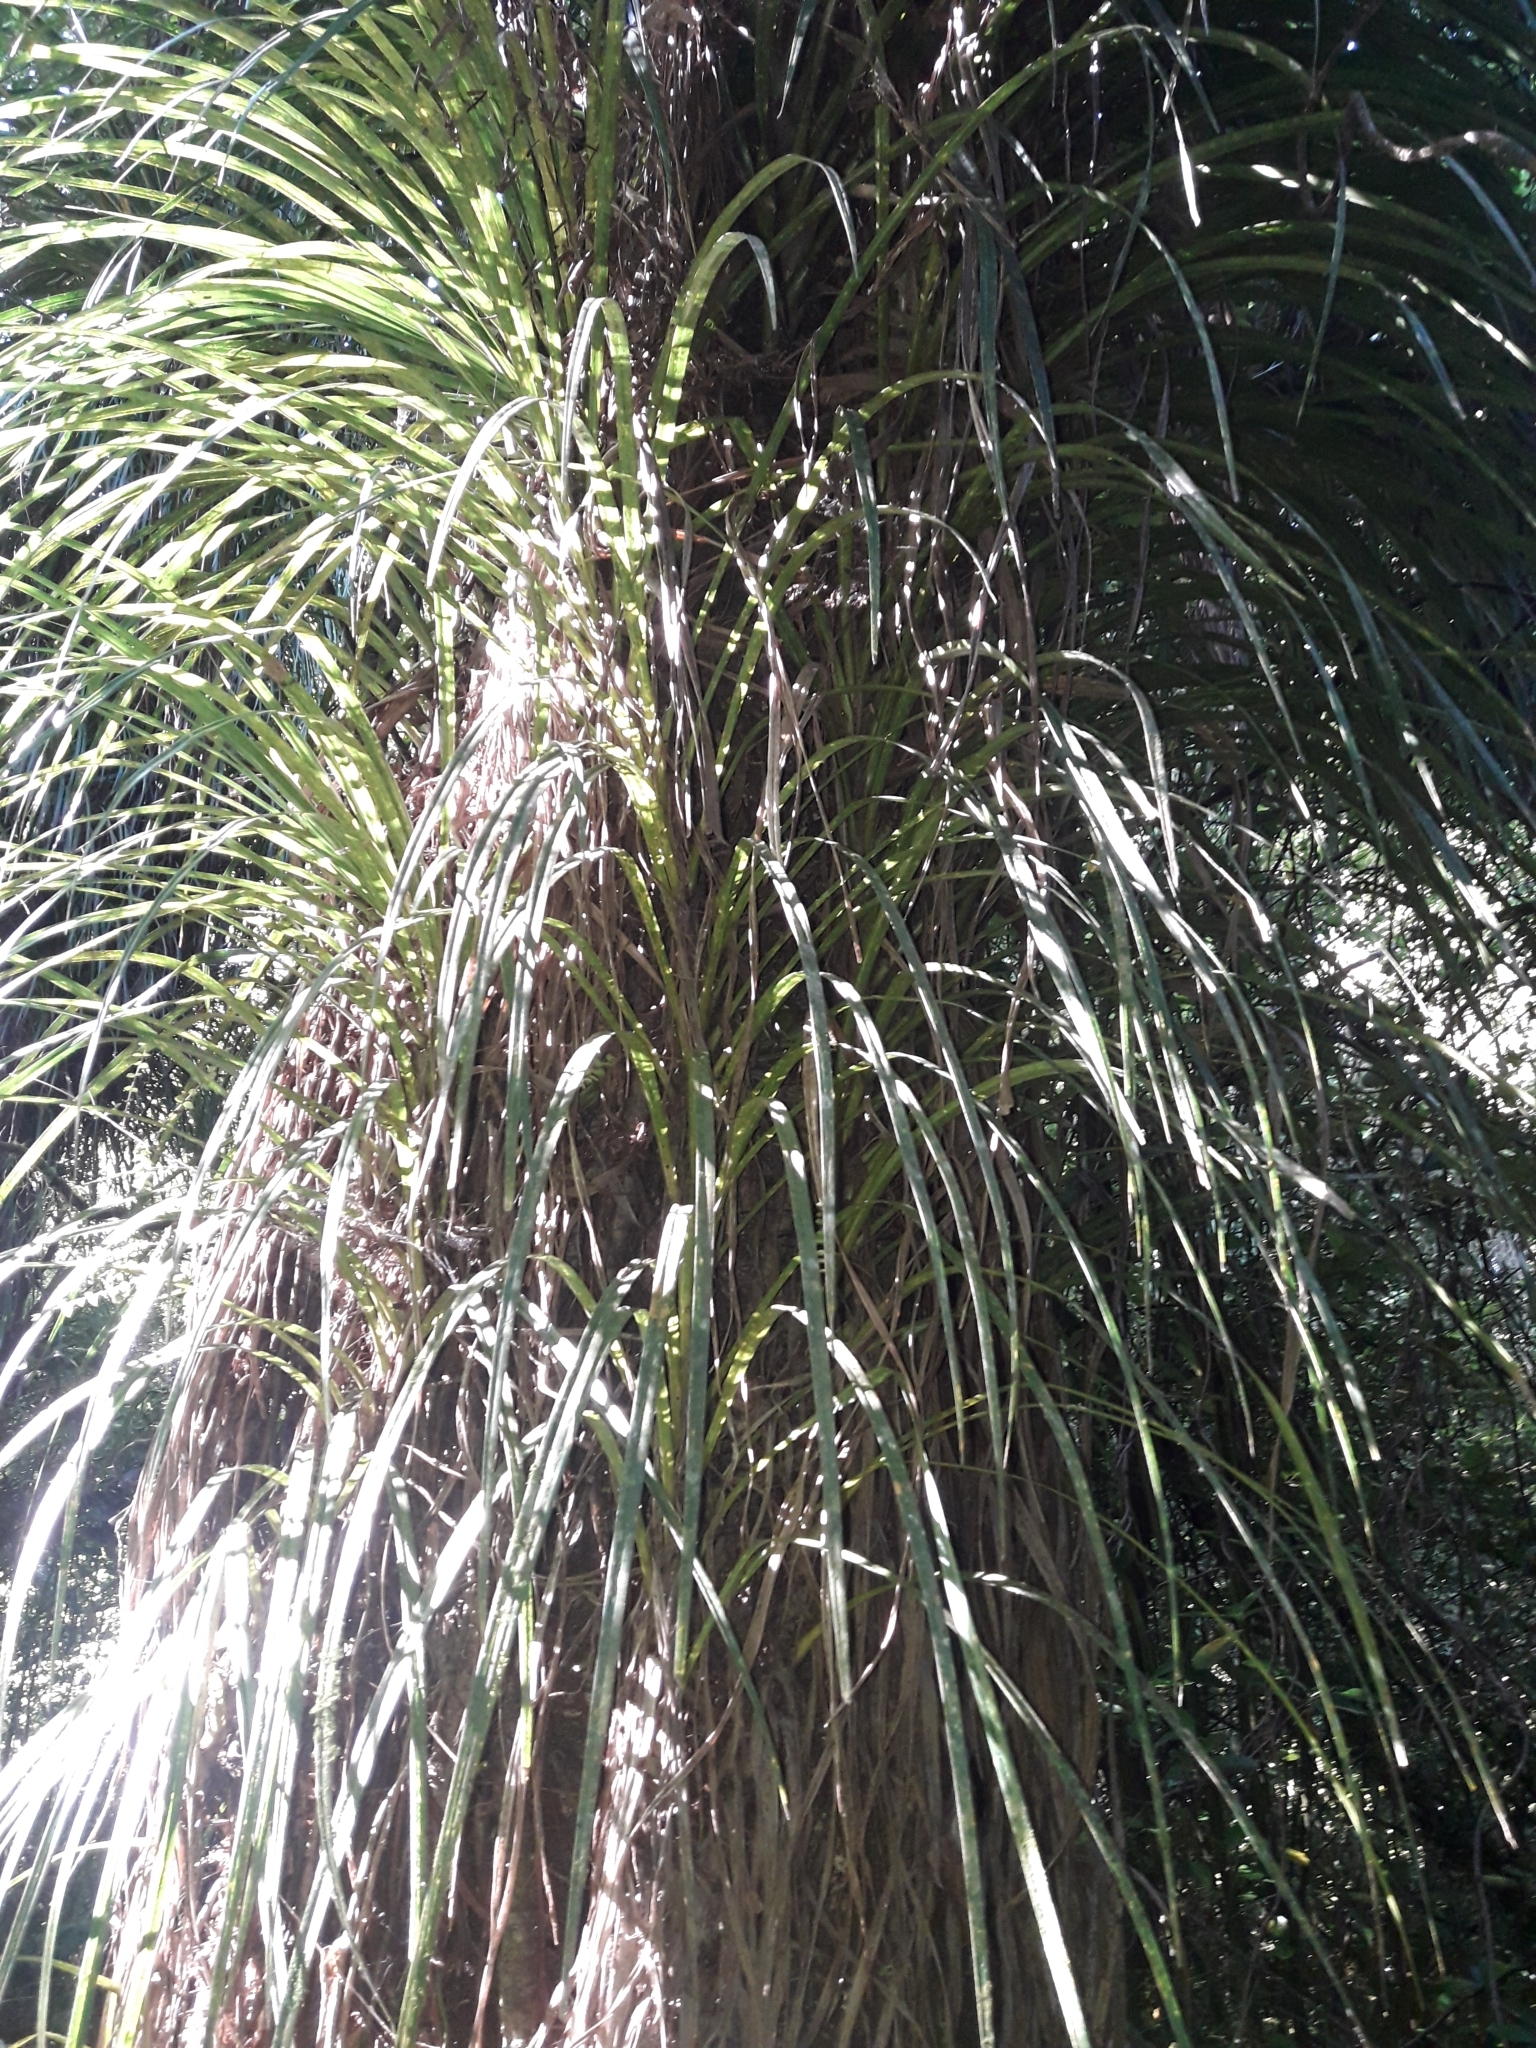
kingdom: Plantae
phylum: Tracheophyta
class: Liliopsida
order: Pandanales
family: Pandanaceae
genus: Freycinetia
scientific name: Freycinetia banksii
